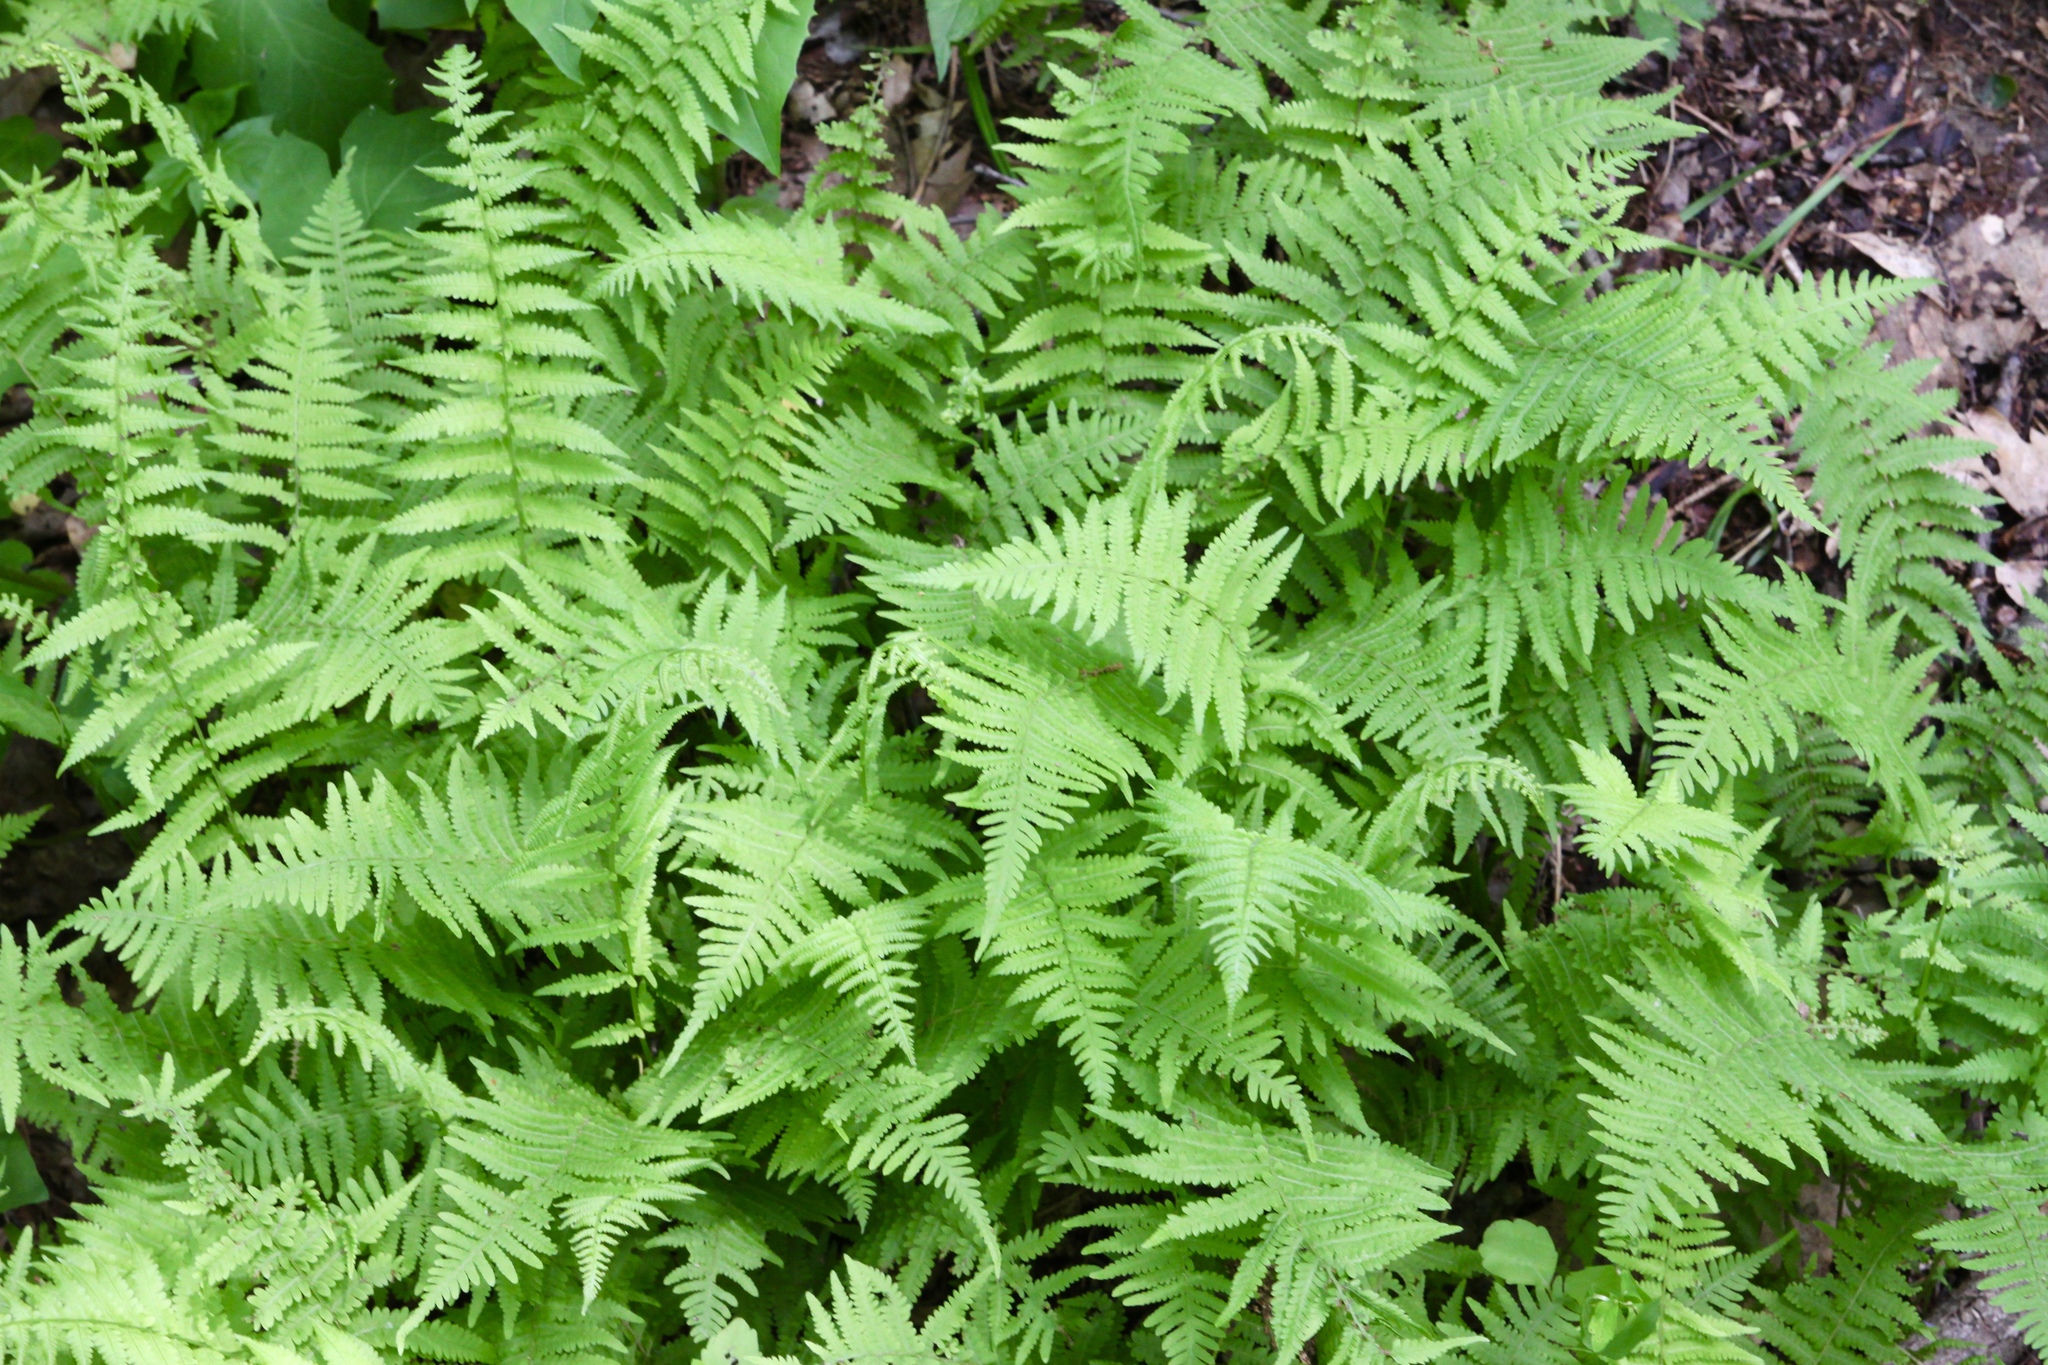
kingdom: Plantae
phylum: Tracheophyta
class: Polypodiopsida
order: Polypodiales
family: Thelypteridaceae
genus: Amauropelta
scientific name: Amauropelta noveboracensis
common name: New york fern
